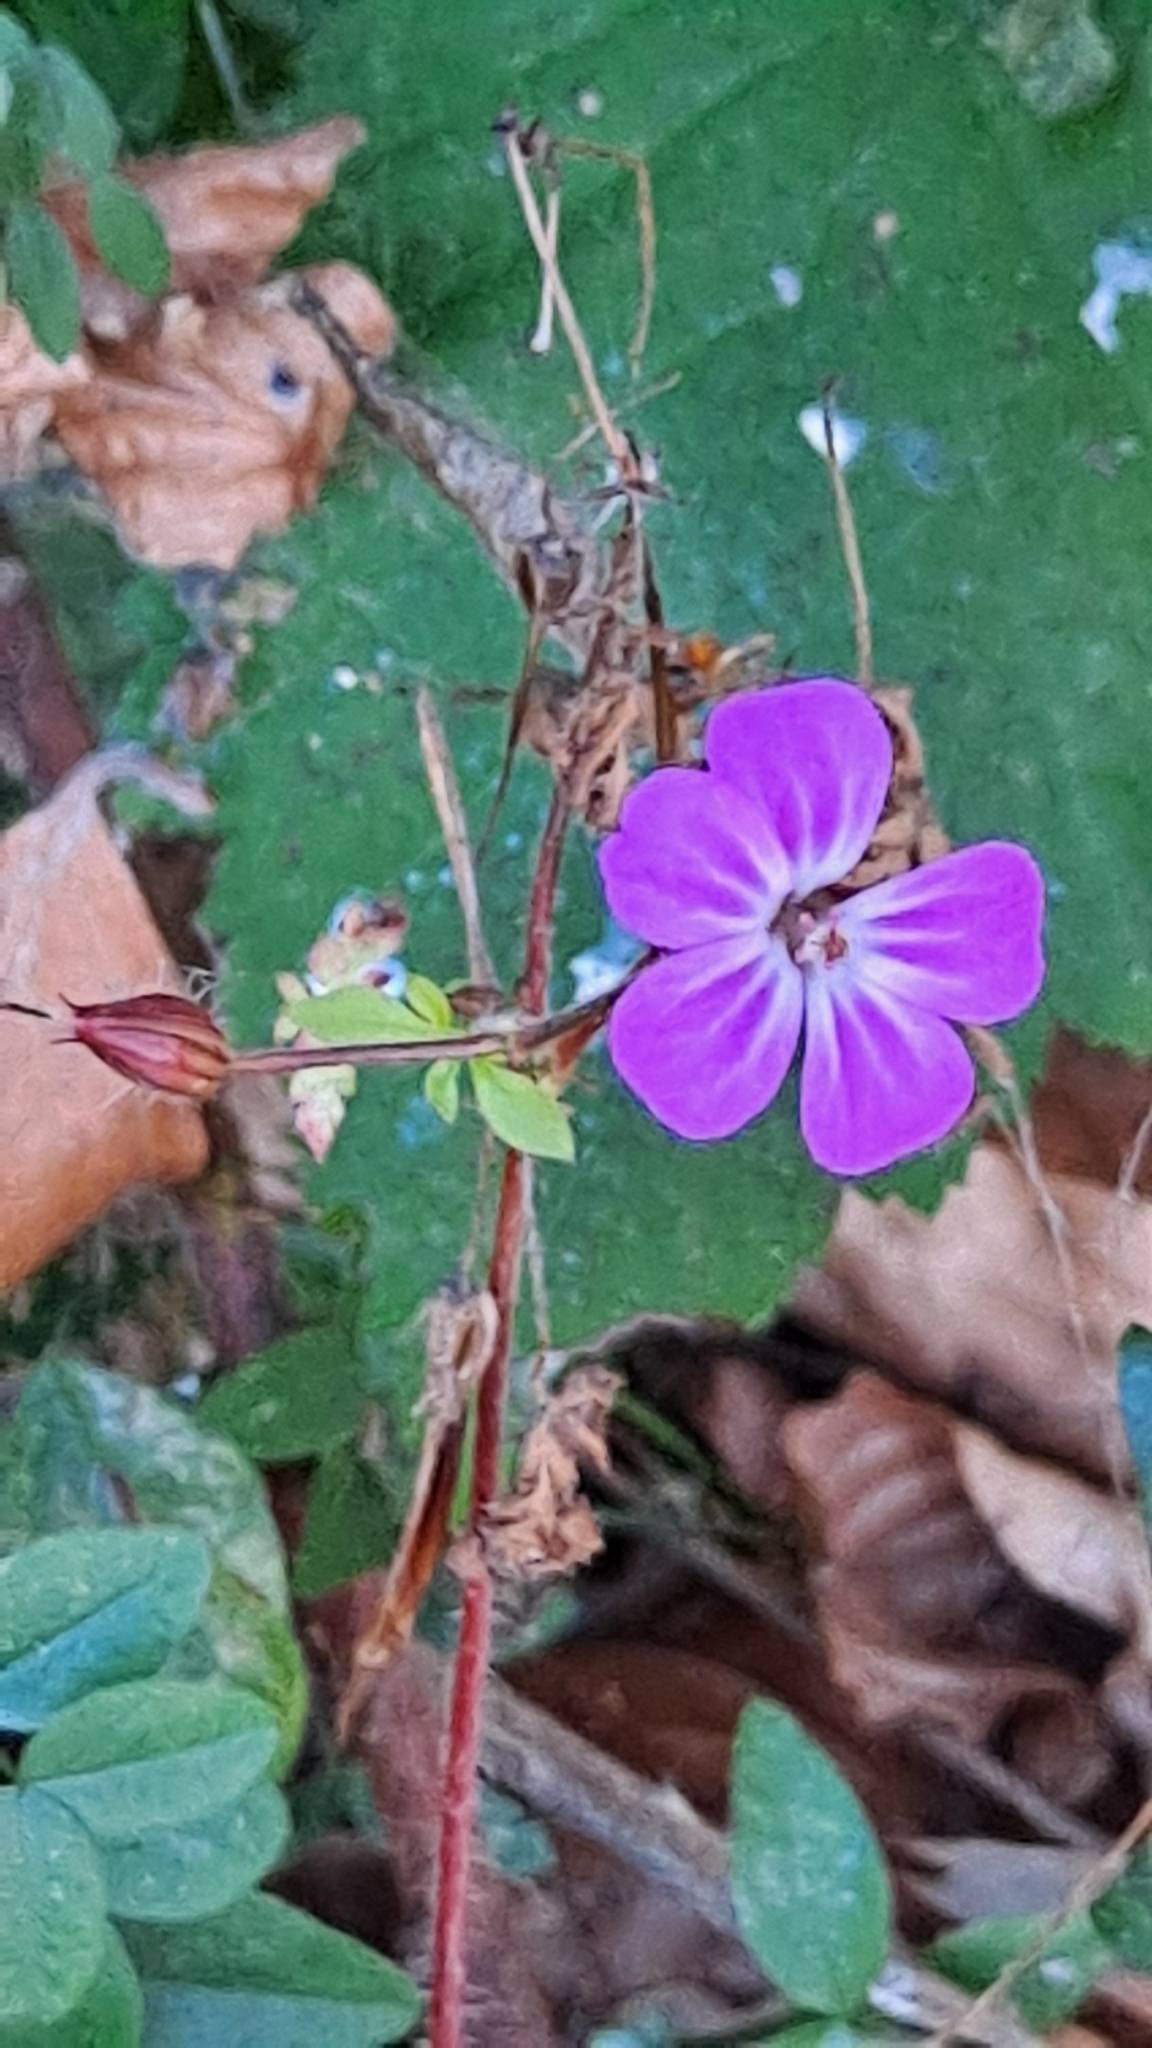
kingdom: Plantae
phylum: Tracheophyta
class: Magnoliopsida
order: Geraniales
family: Geraniaceae
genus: Geranium
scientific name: Geranium robertianum
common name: Herb-robert
